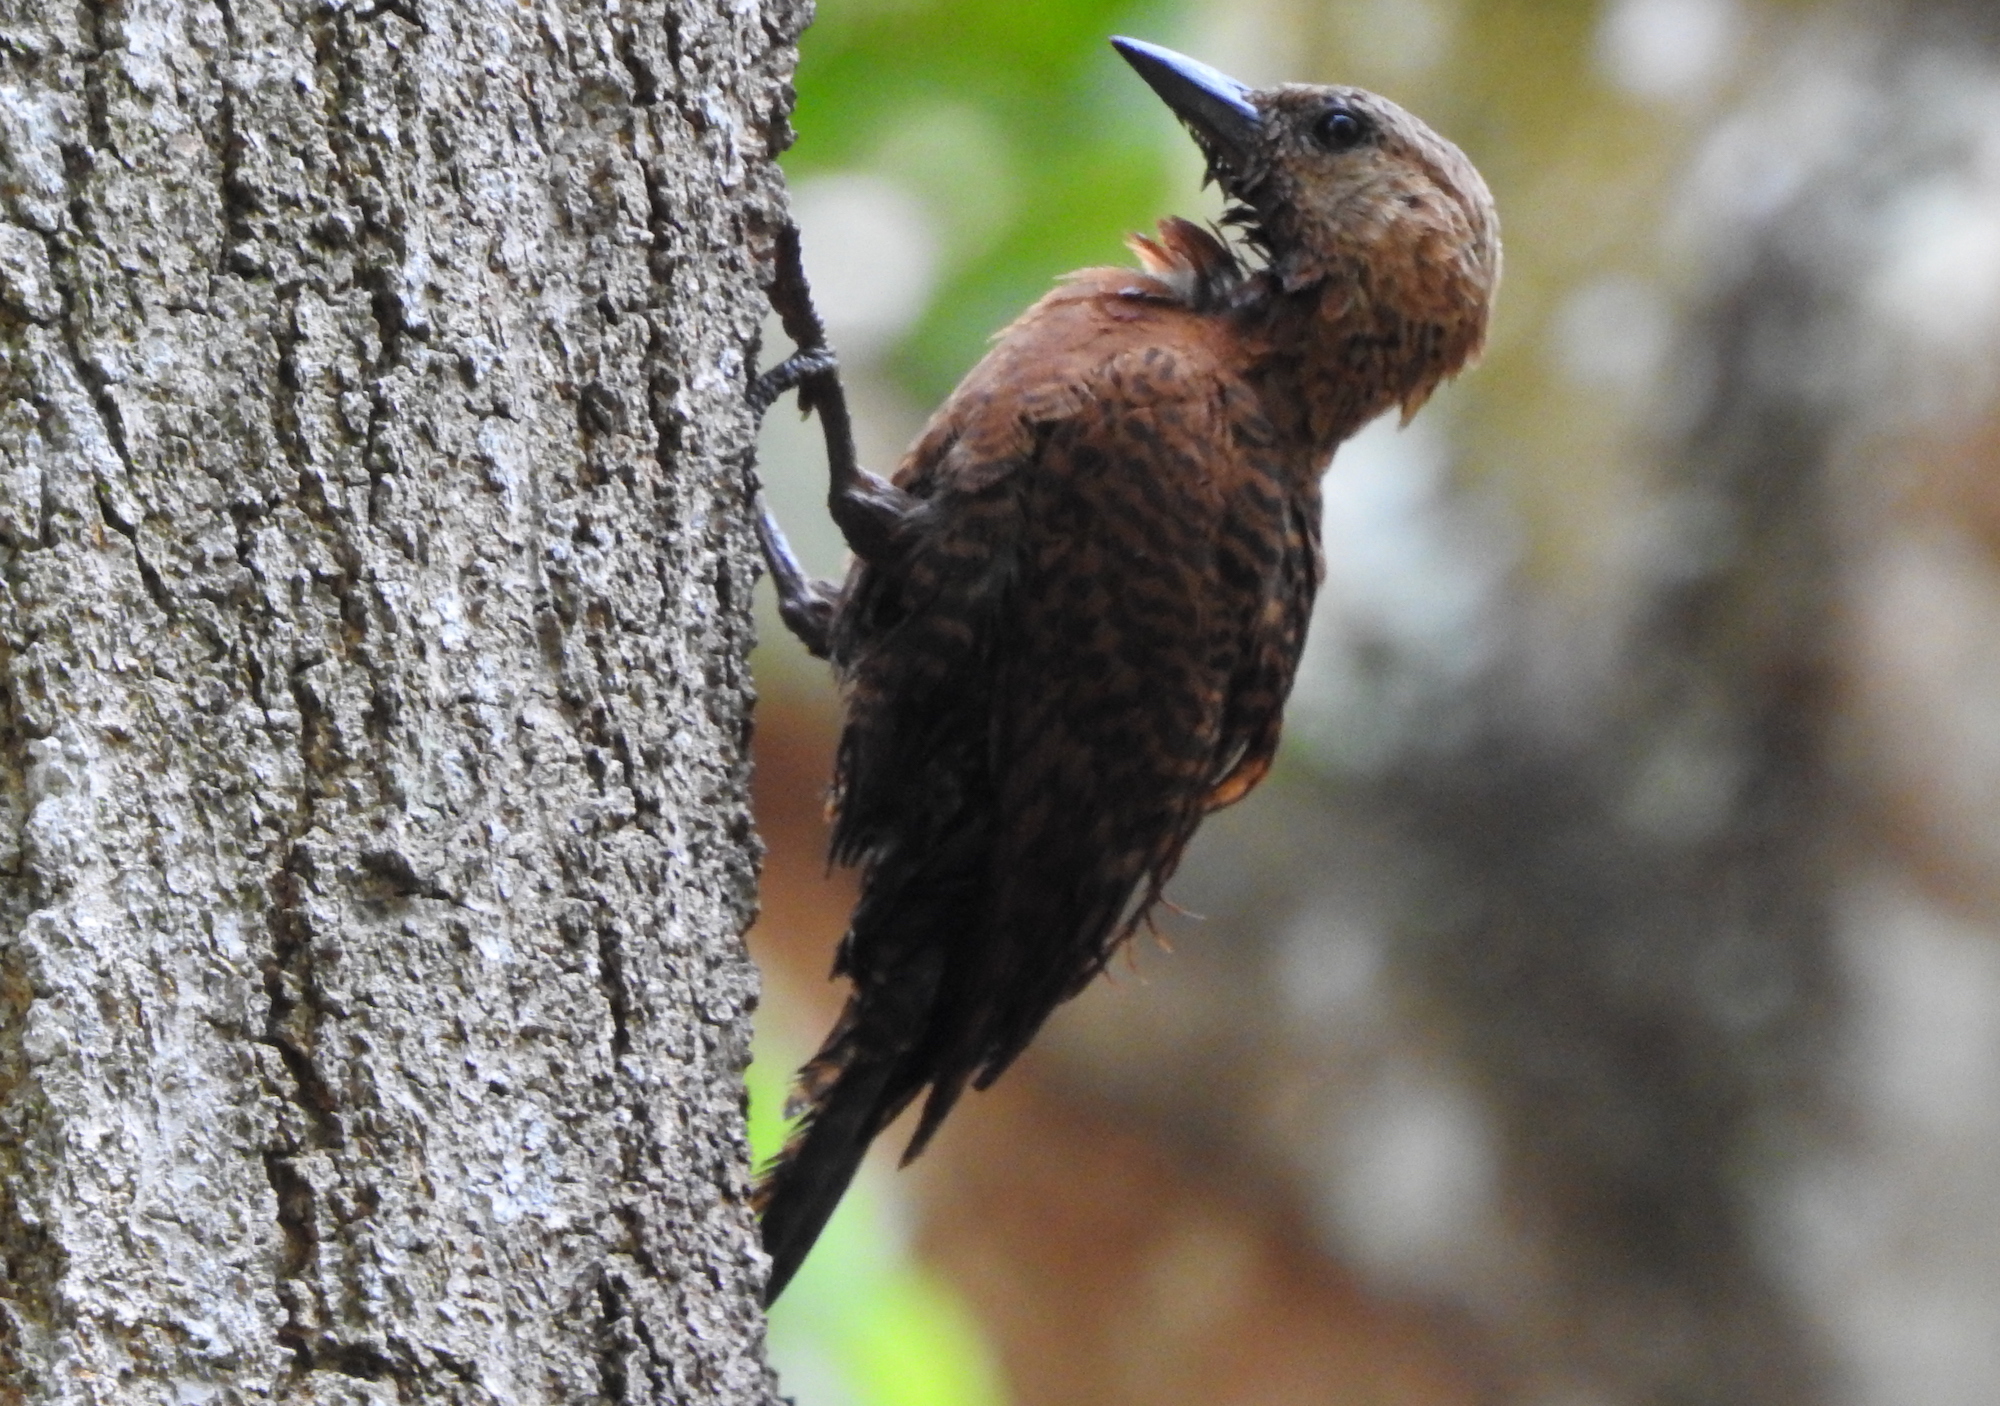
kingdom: Animalia
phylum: Chordata
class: Aves
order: Piciformes
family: Picidae
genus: Micropternus
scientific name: Micropternus brachyurus
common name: Rufous woodpecker
